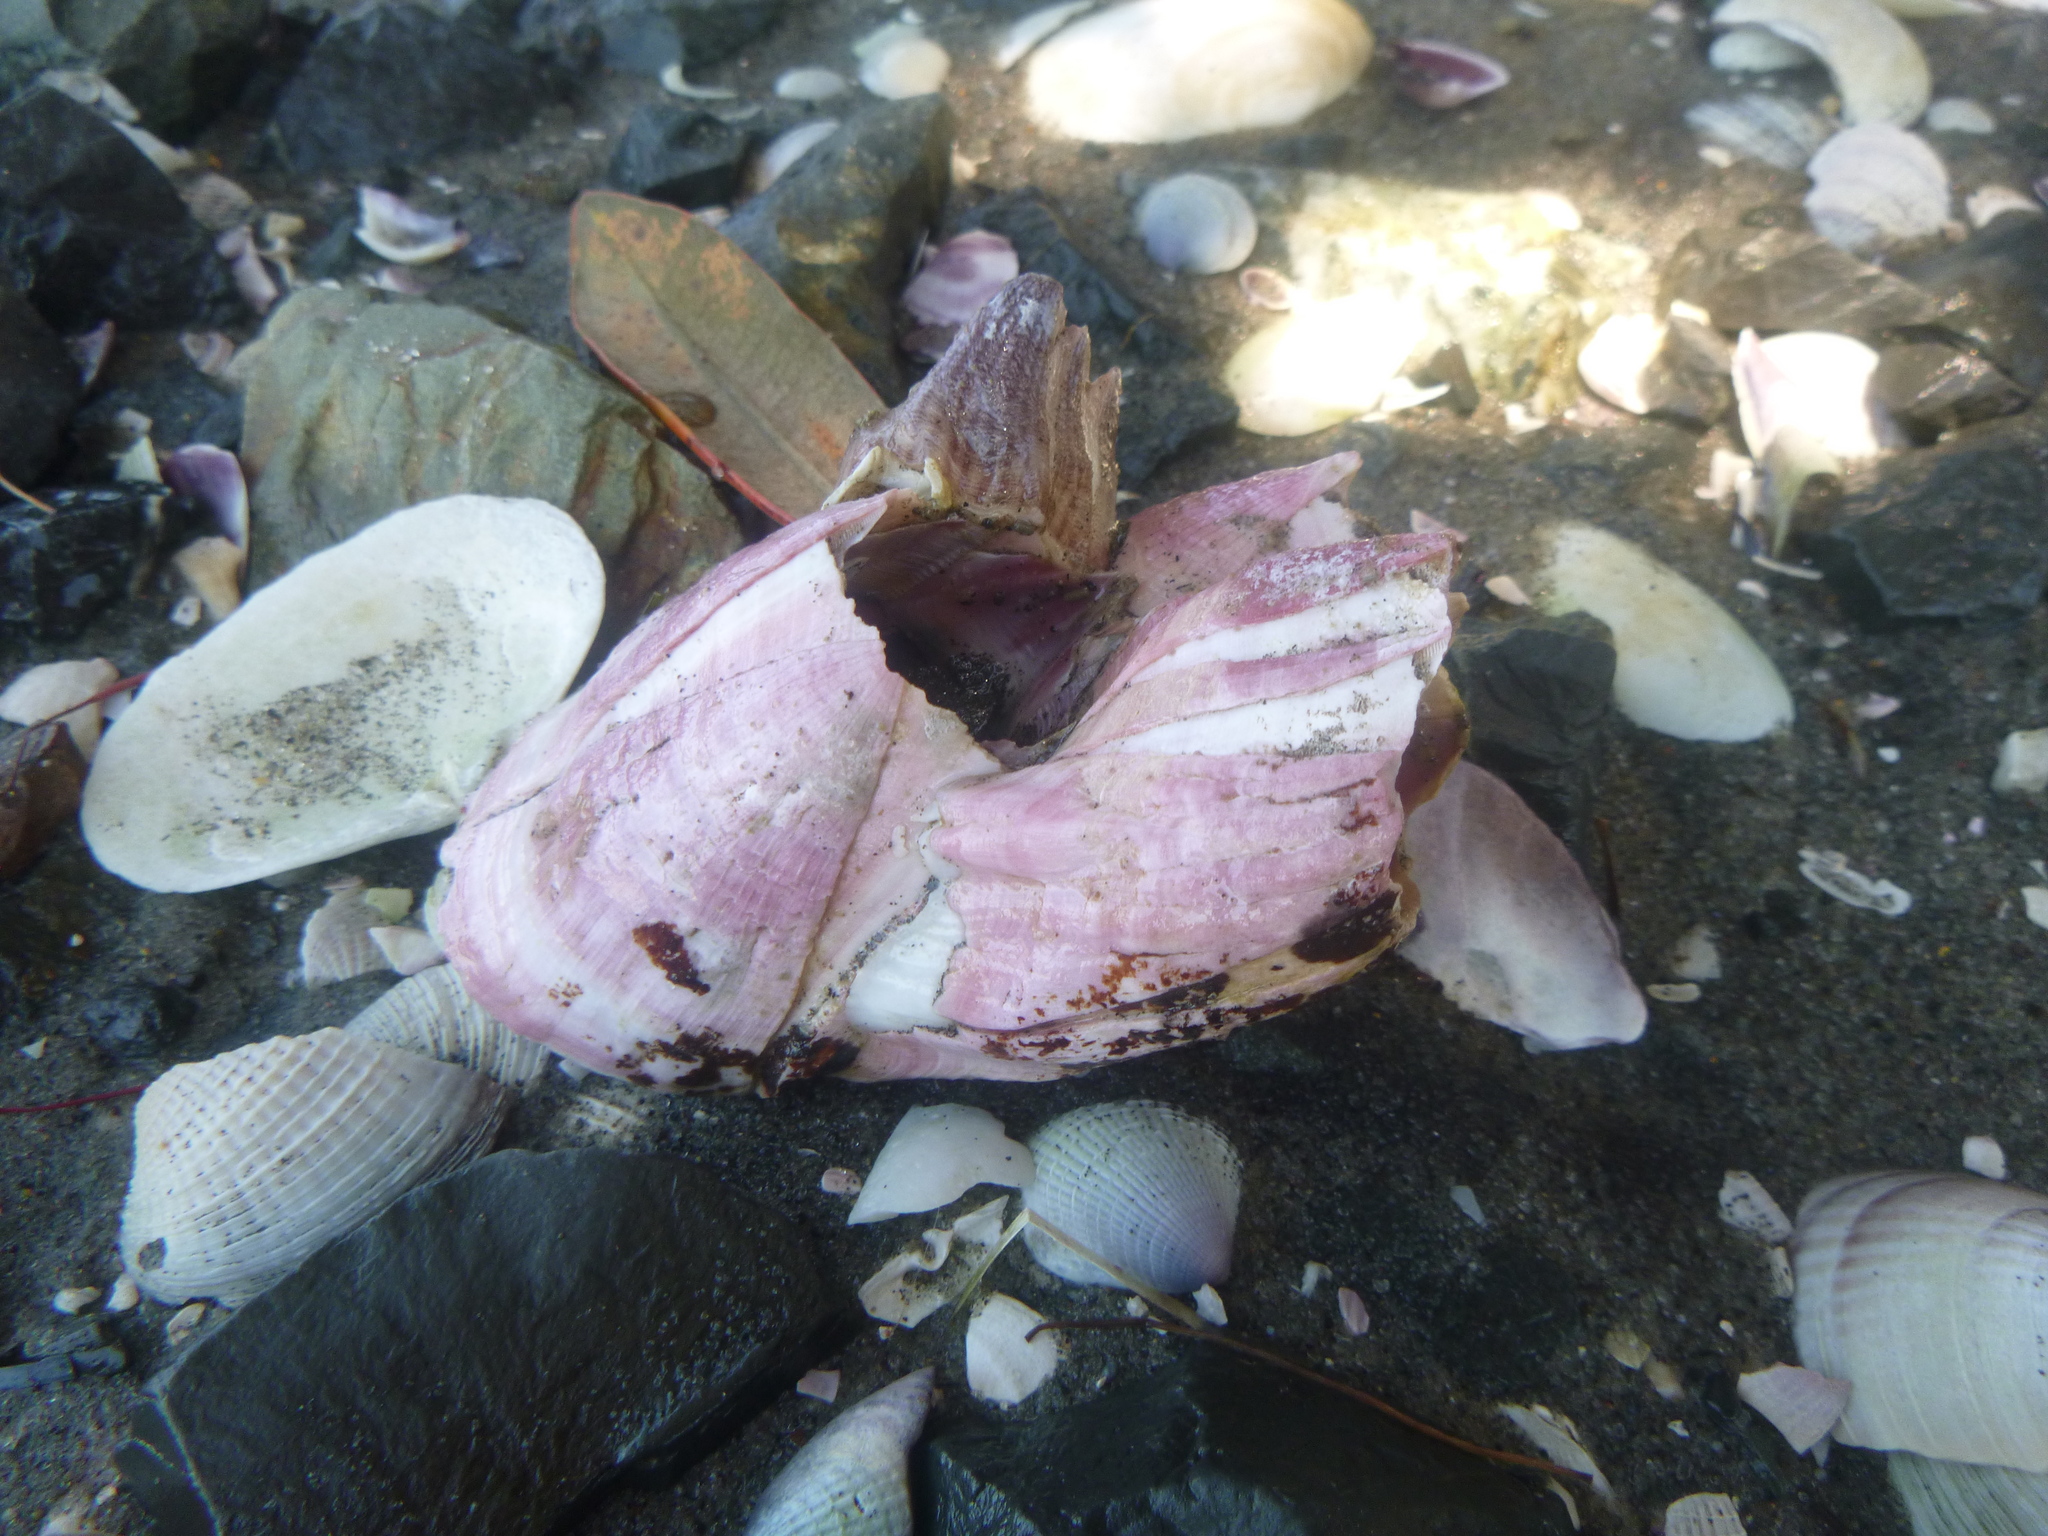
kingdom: Animalia
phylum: Arthropoda
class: Maxillopoda
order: Sessilia
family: Balanidae
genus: Notomegabalanus
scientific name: Notomegabalanus decorus
